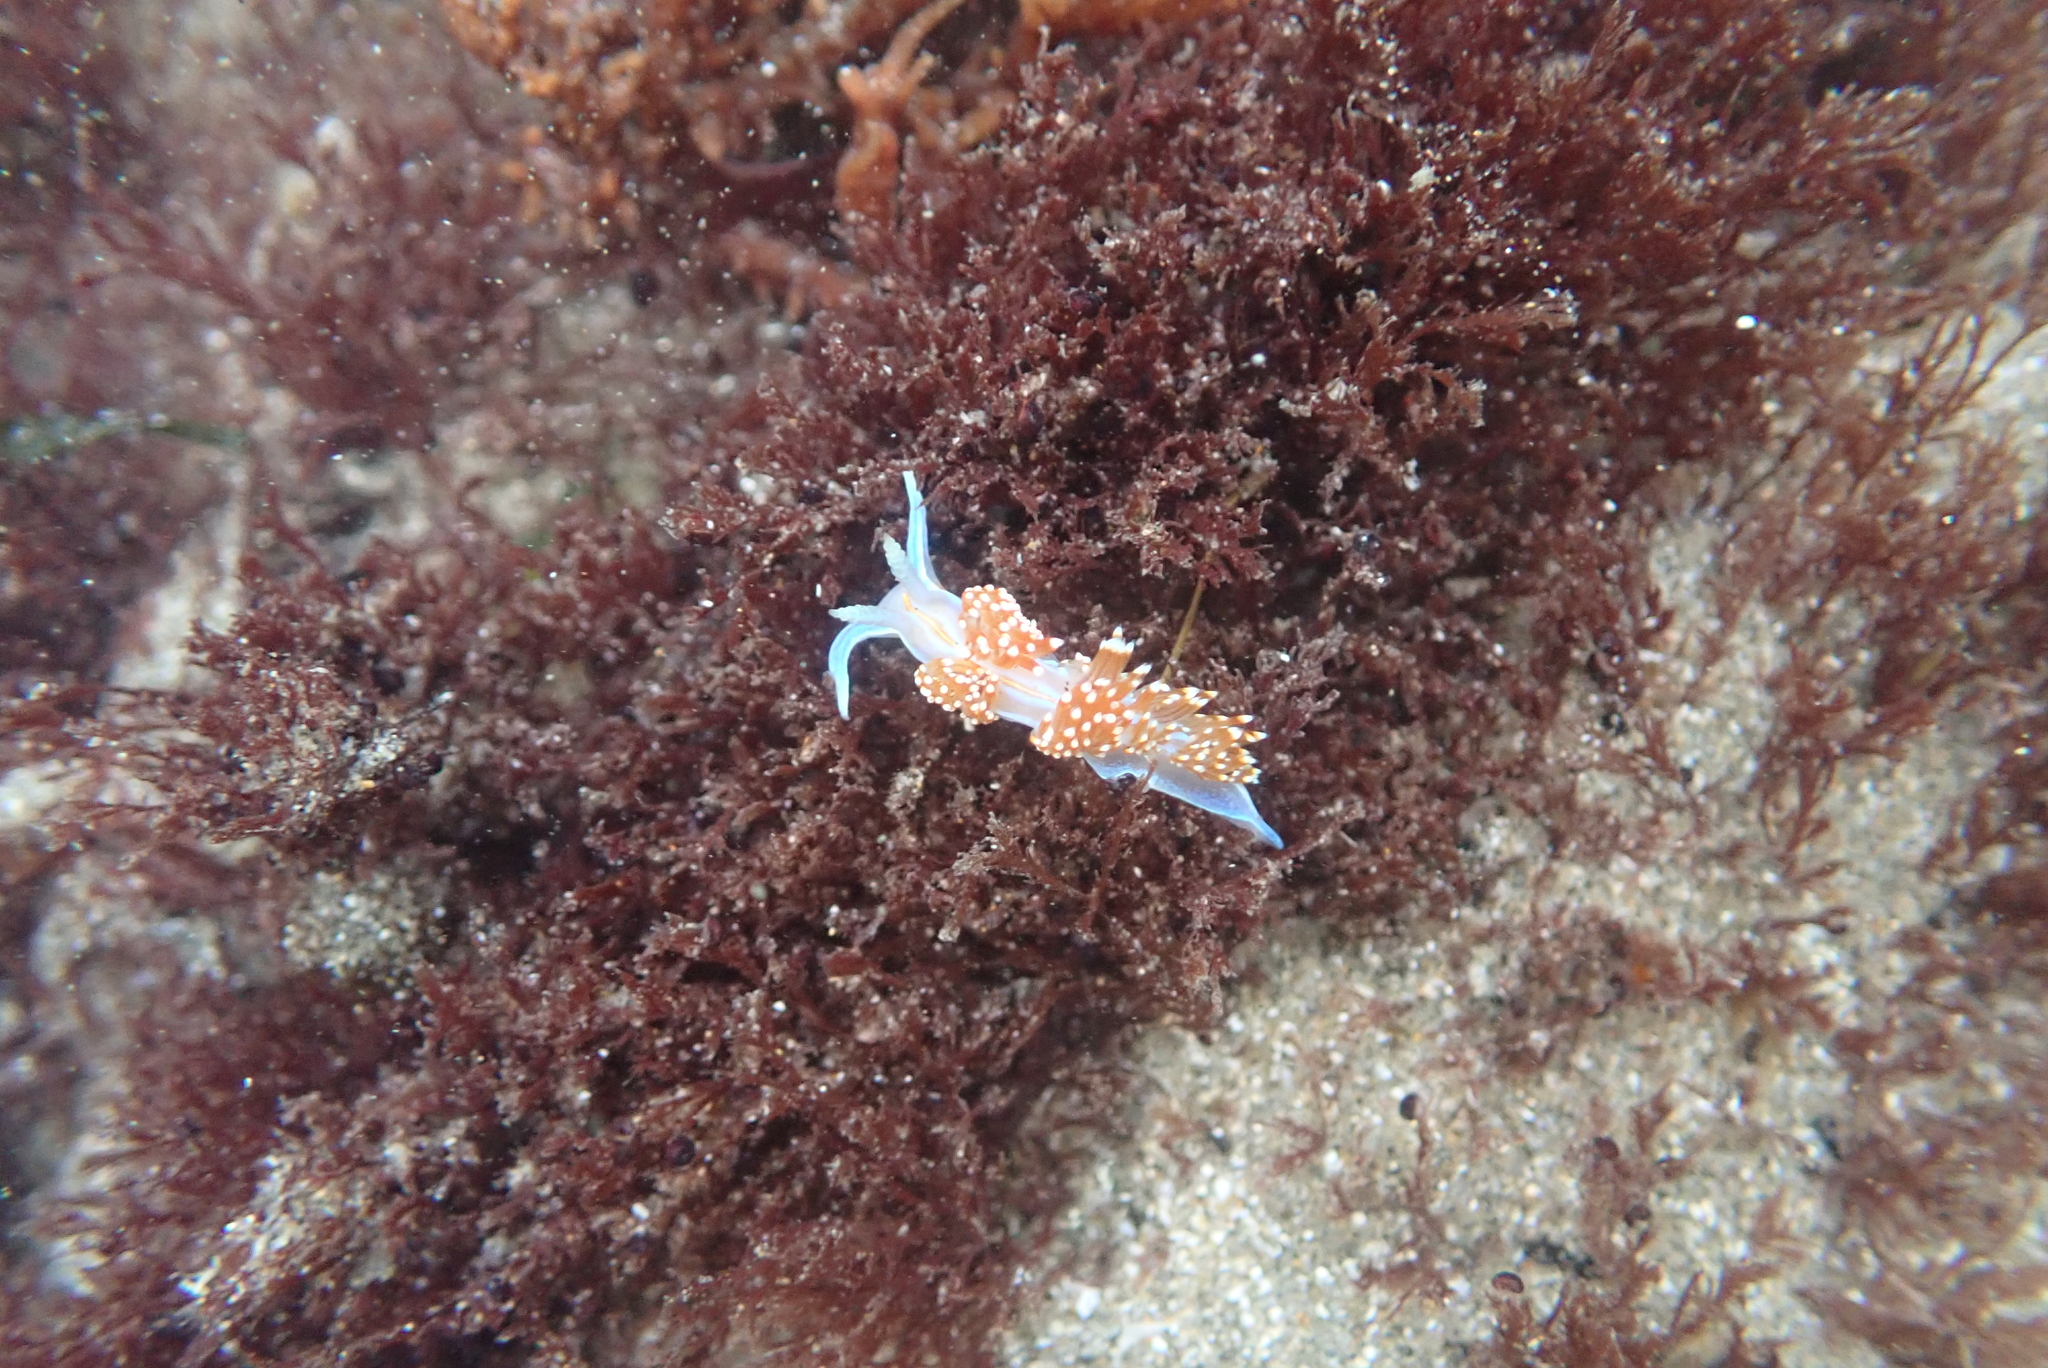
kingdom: Animalia
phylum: Mollusca
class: Gastropoda
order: Nudibranchia
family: Myrrhinidae
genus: Hermissenda
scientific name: Hermissenda opalescens
